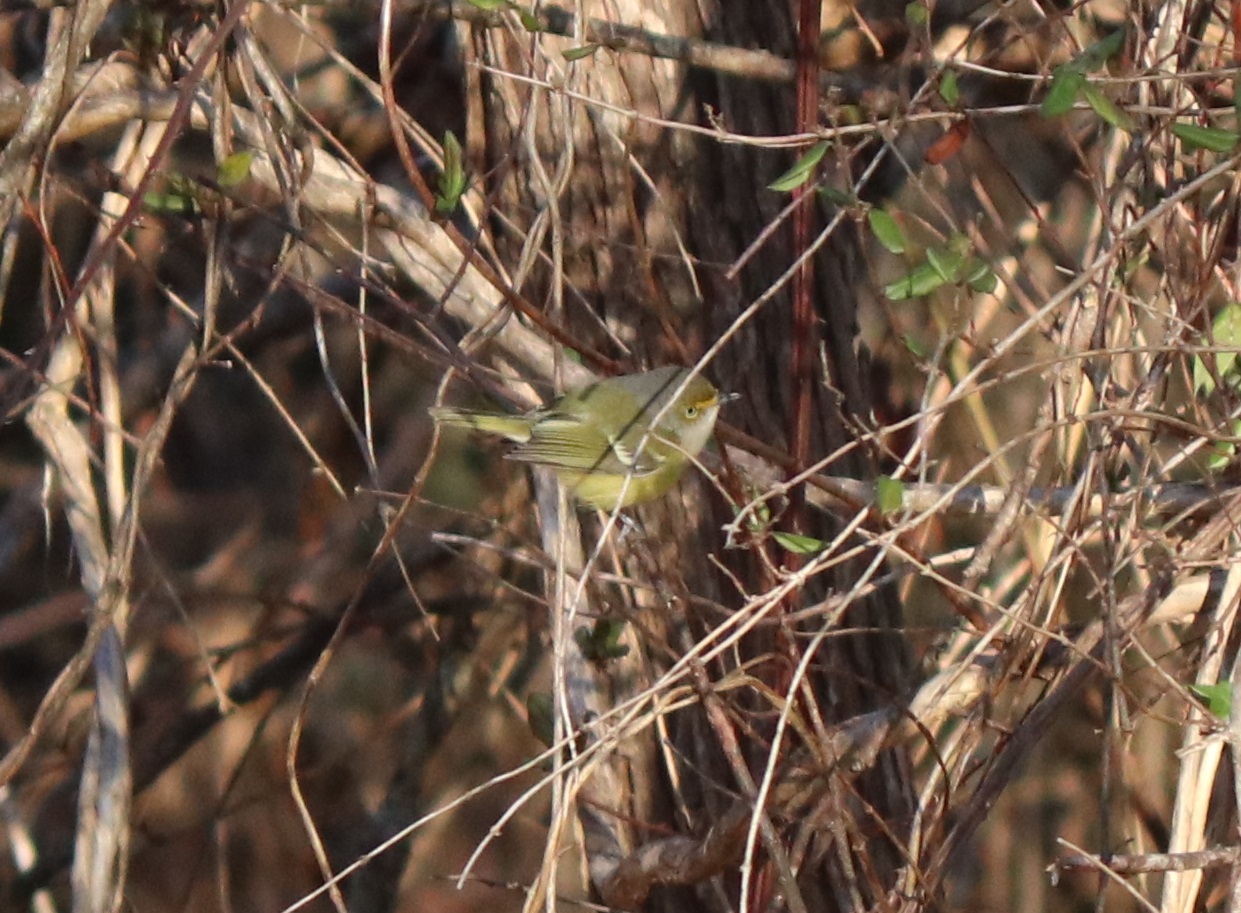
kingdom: Animalia
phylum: Chordata
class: Aves
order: Passeriformes
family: Vireonidae
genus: Vireo
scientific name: Vireo griseus
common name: White-eyed vireo
